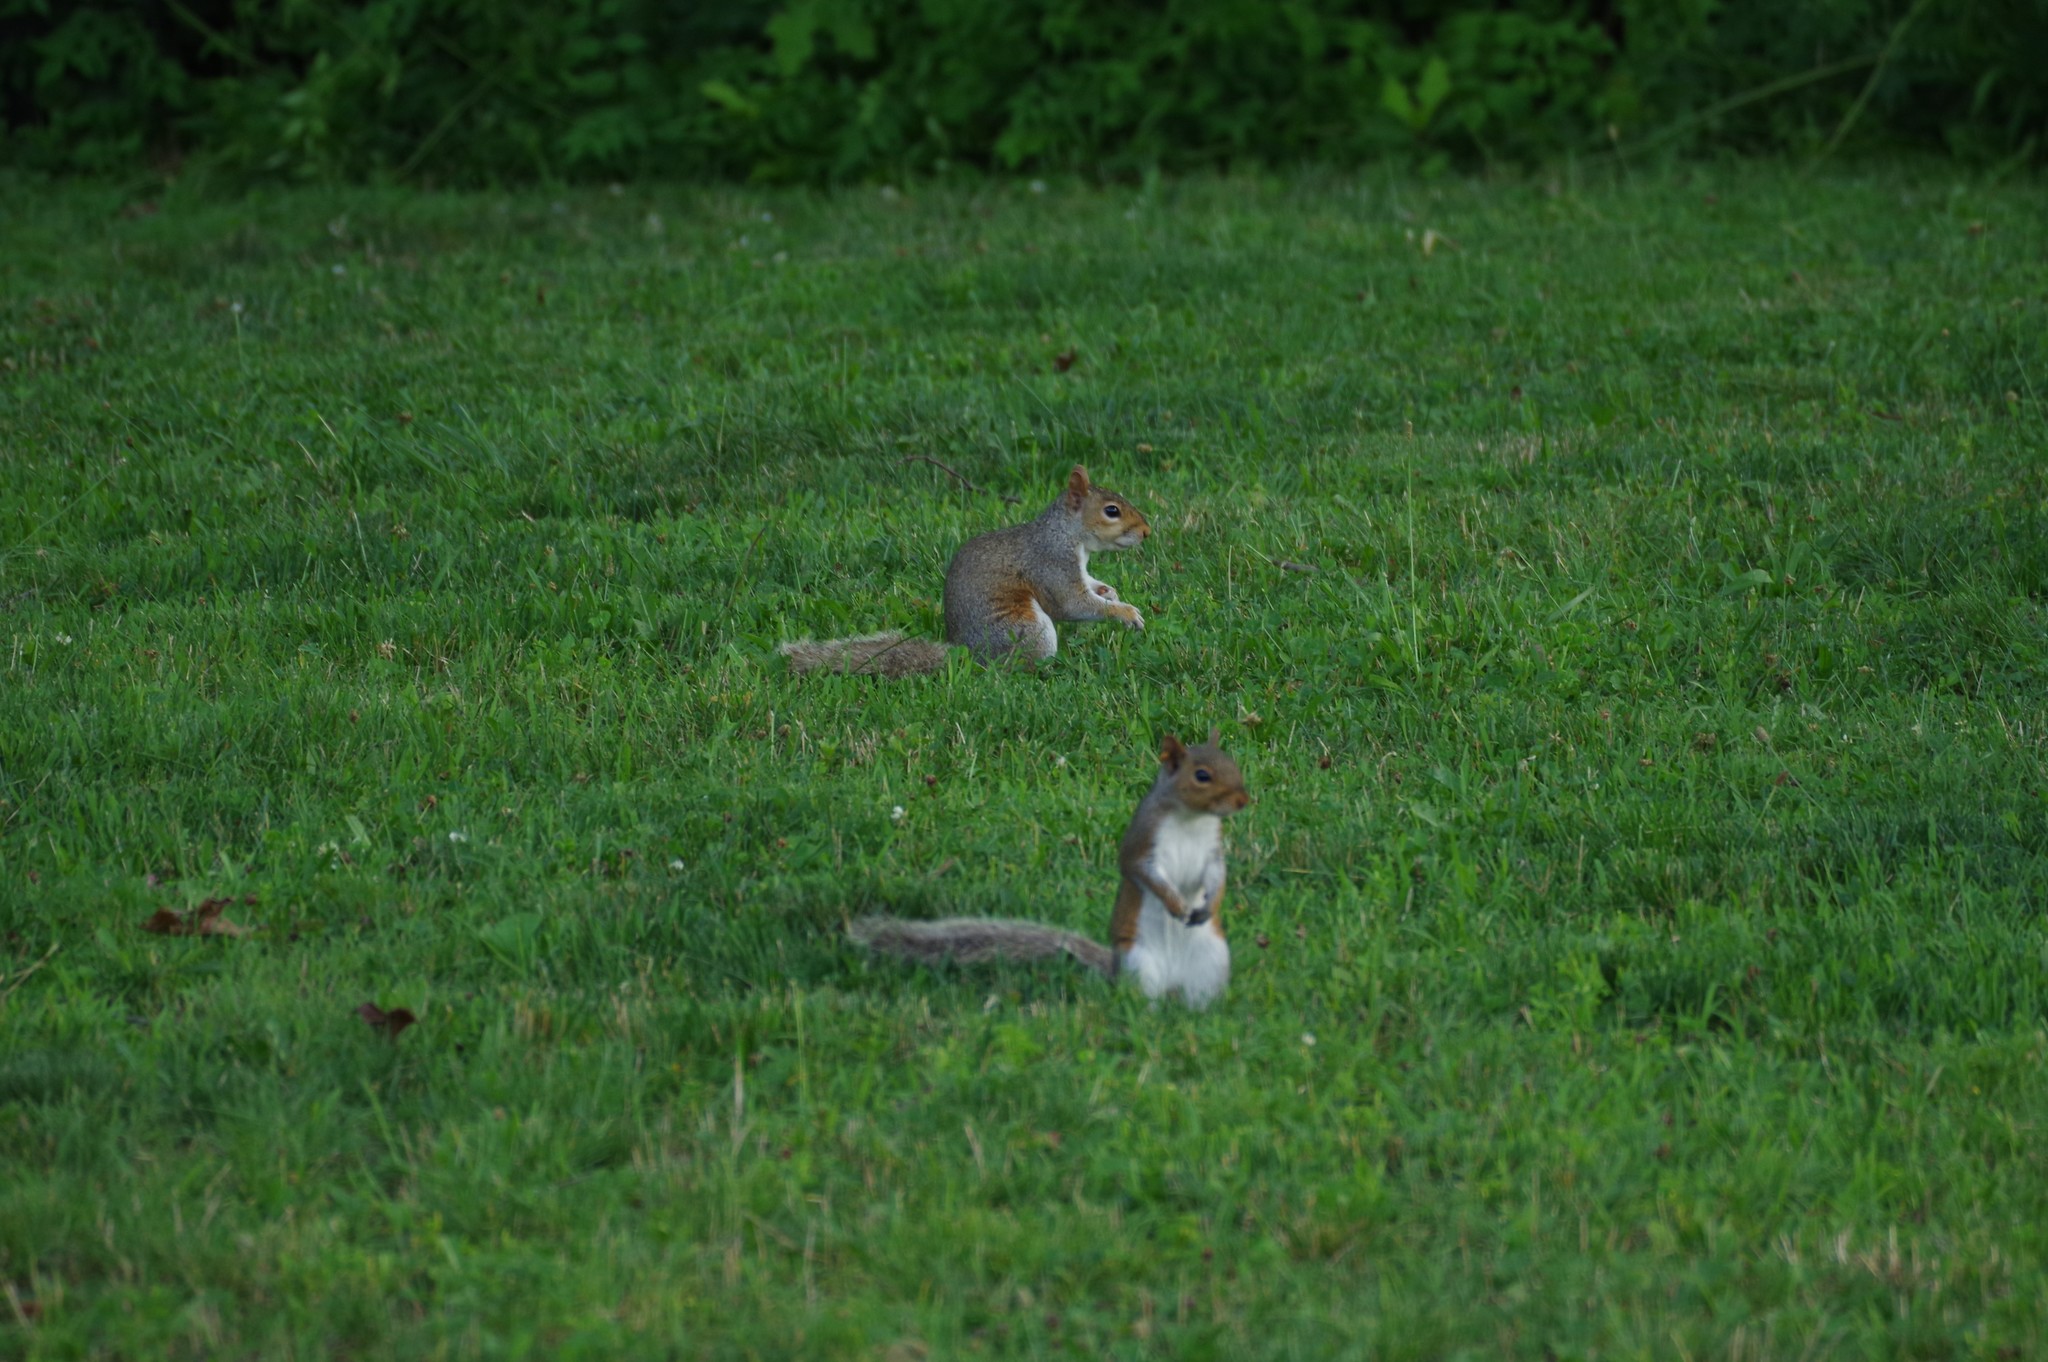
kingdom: Animalia
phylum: Chordata
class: Mammalia
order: Rodentia
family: Sciuridae
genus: Sciurus
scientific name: Sciurus carolinensis
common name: Eastern gray squirrel
